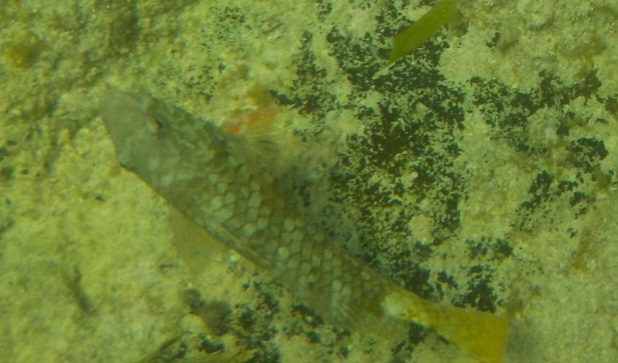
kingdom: Animalia
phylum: Chordata
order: Perciformes
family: Scaridae
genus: Sparisoma
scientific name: Sparisoma rubripinne
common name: Redfin parrotfish
